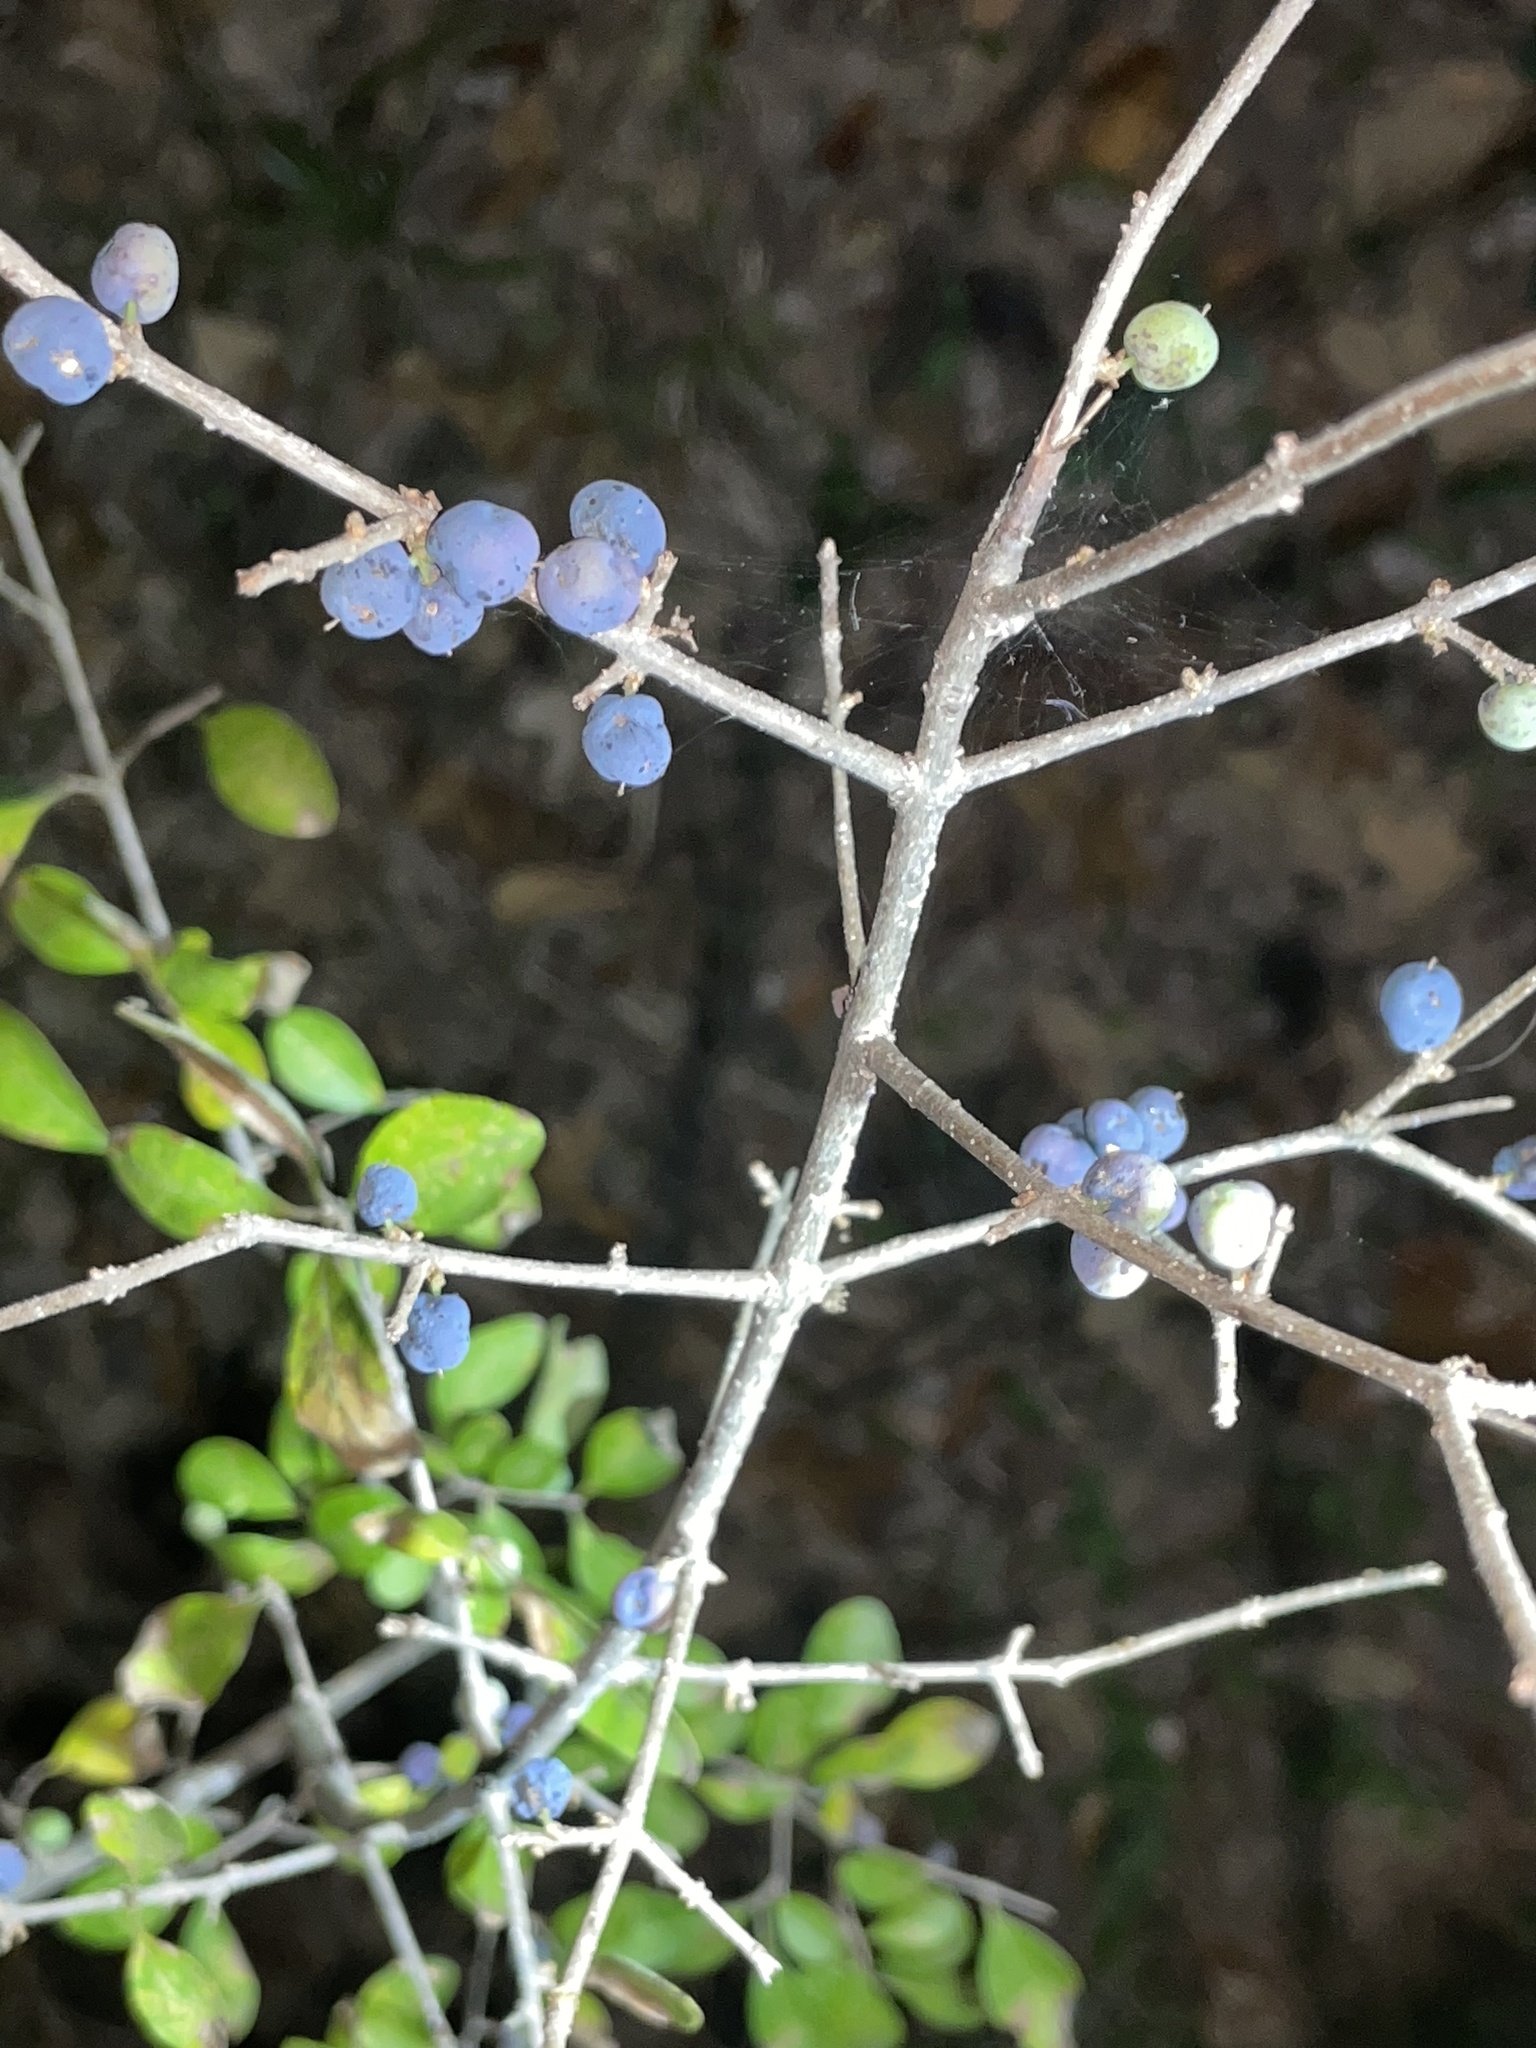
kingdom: Plantae
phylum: Tracheophyta
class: Magnoliopsida
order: Lamiales
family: Oleaceae
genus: Forestiera
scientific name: Forestiera ligustrina
